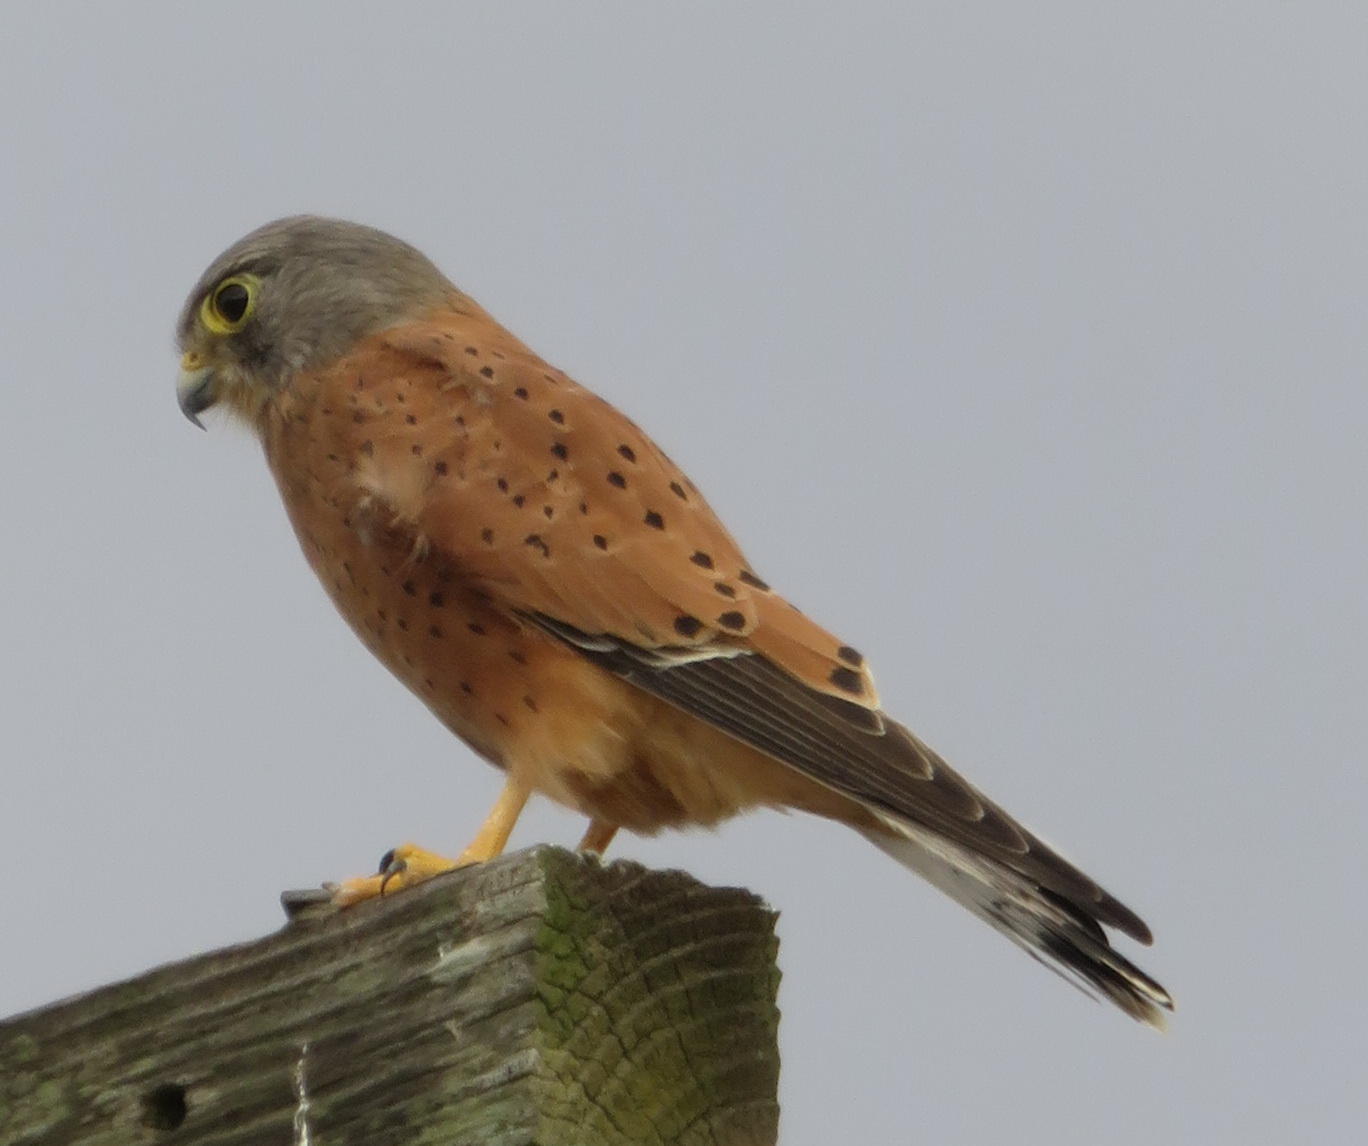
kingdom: Animalia
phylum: Chordata
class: Aves
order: Falconiformes
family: Falconidae
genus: Falco
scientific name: Falco rupicolus
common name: Rock kestrel
